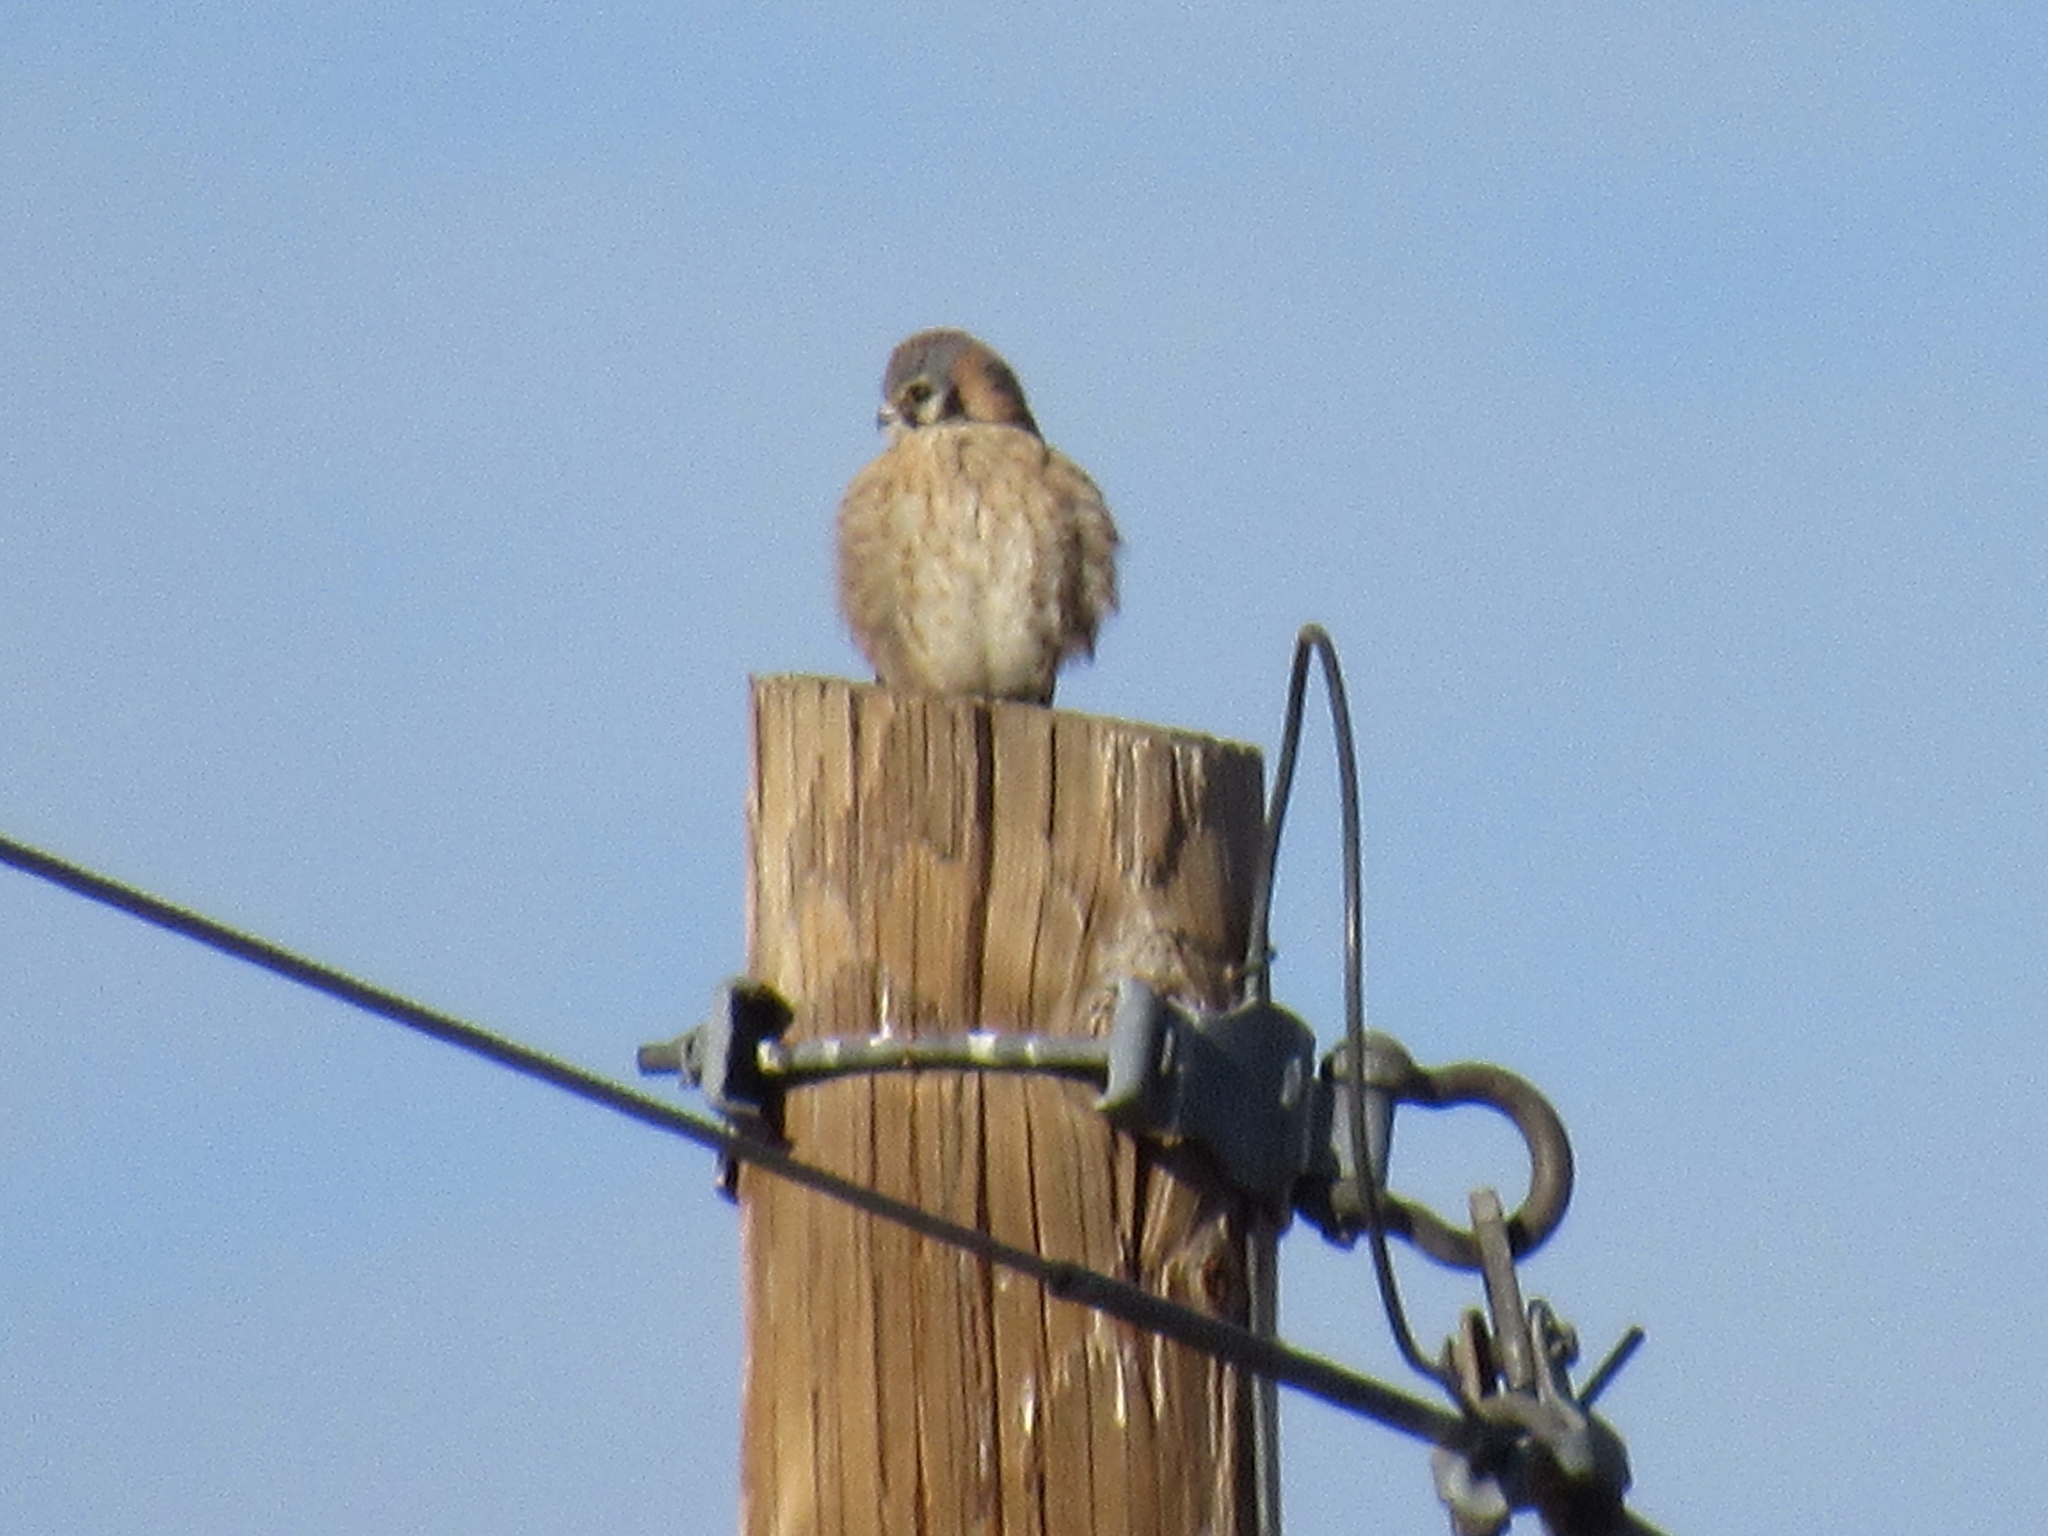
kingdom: Animalia
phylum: Chordata
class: Aves
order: Falconiformes
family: Falconidae
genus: Falco
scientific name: Falco sparverius
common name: American kestrel
